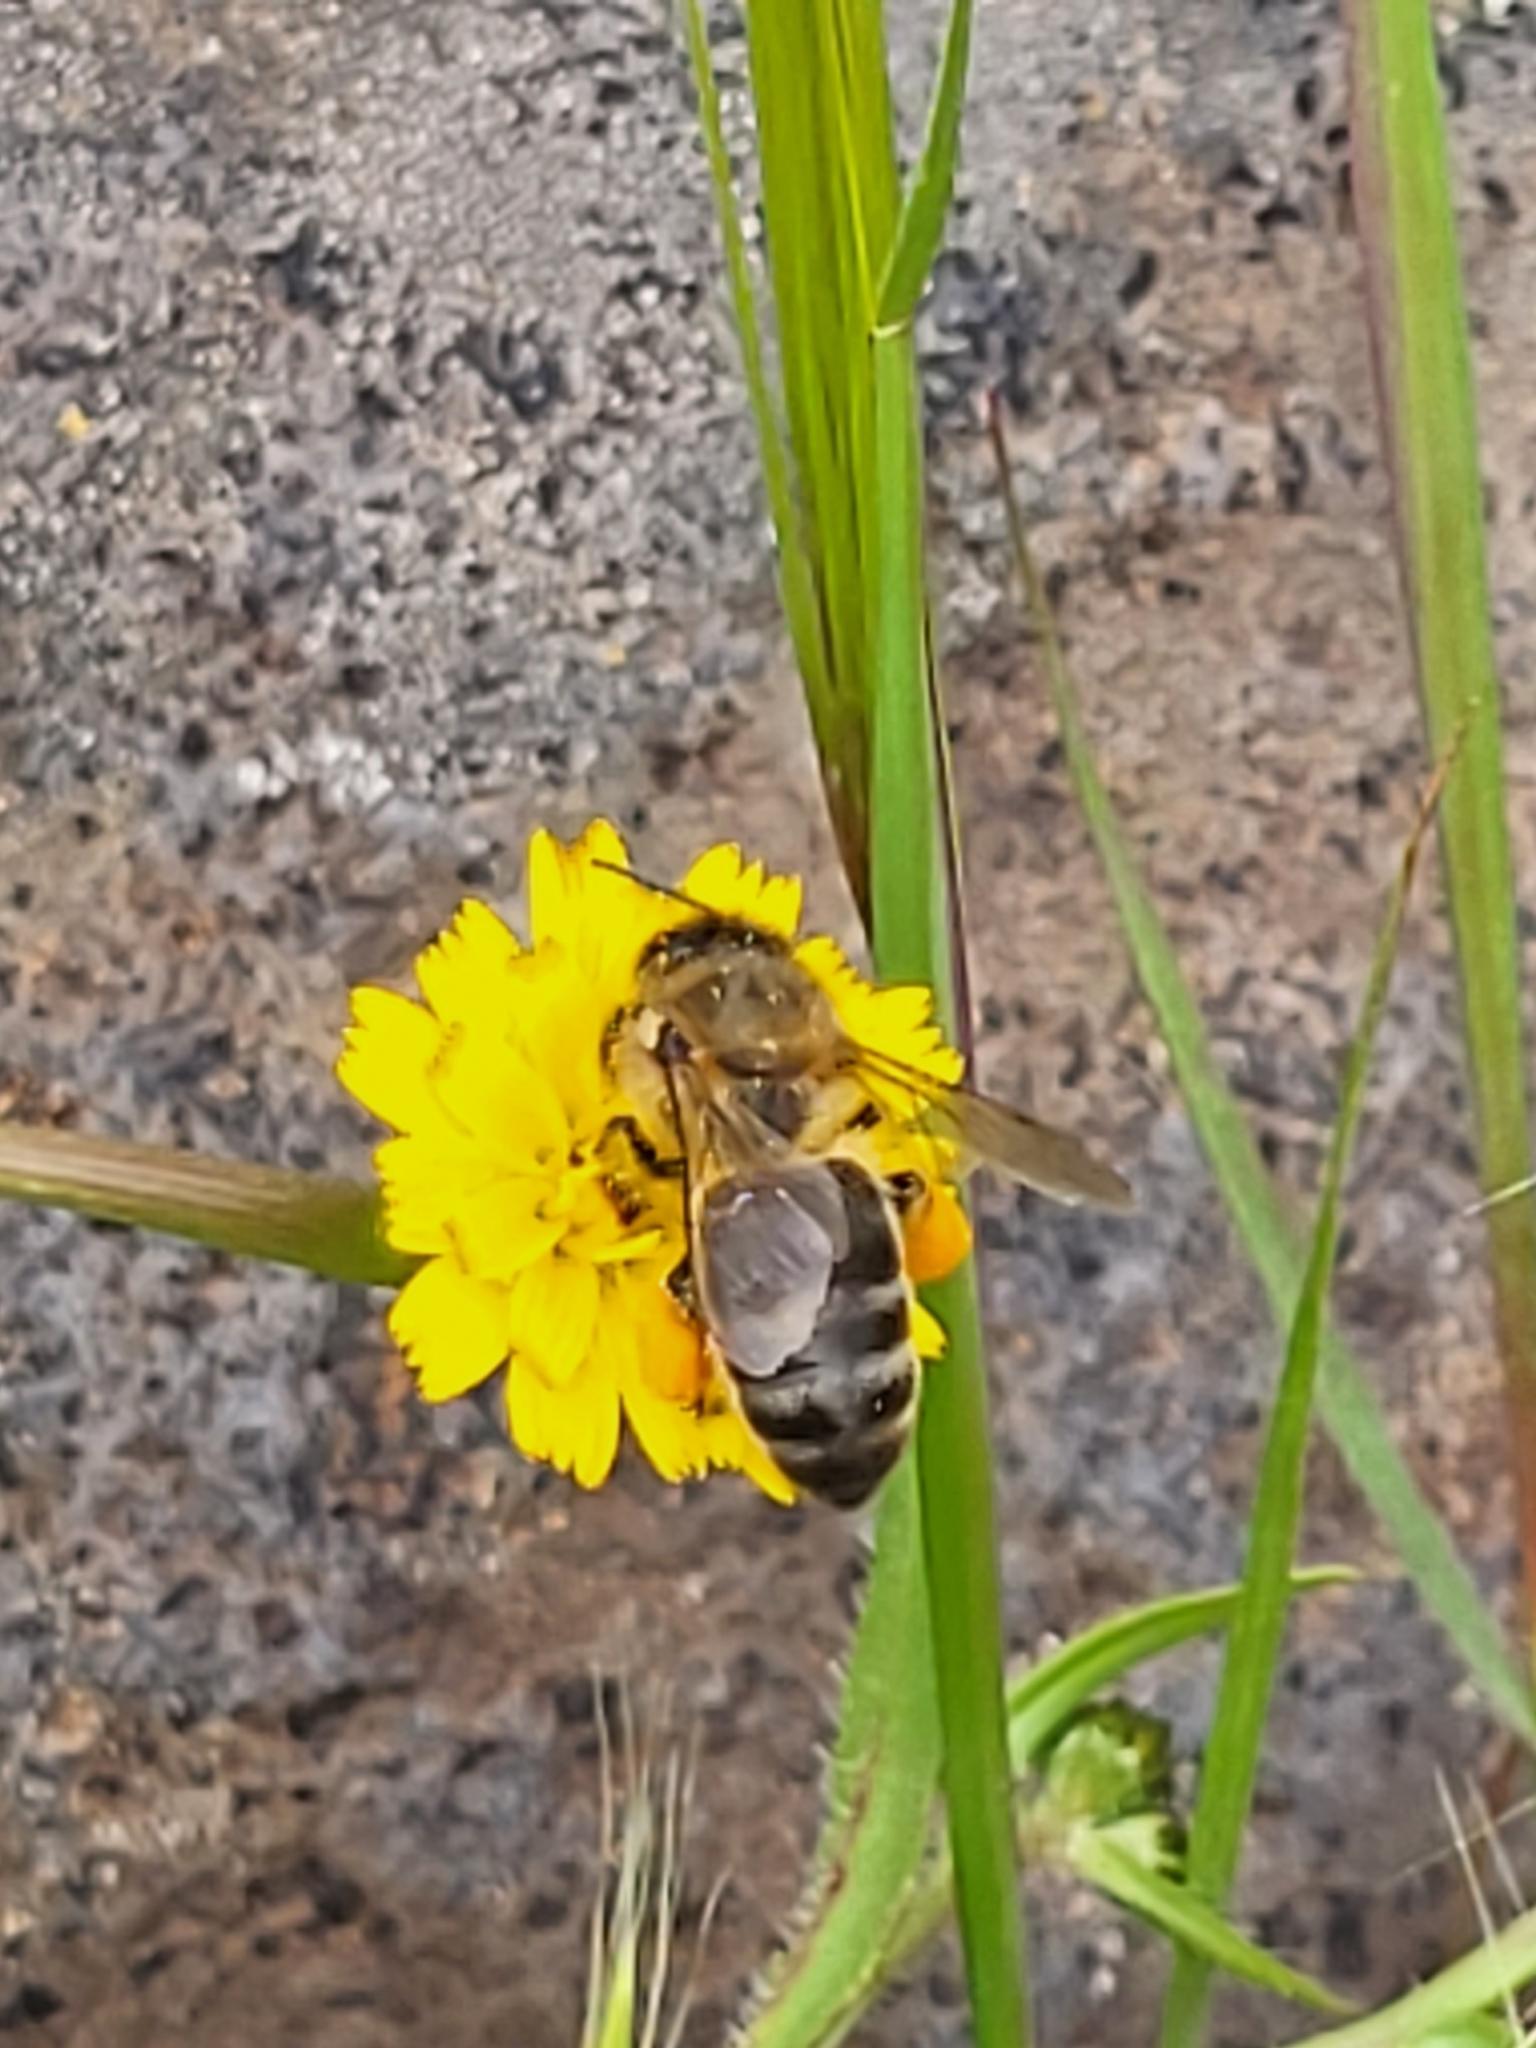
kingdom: Animalia
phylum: Arthropoda
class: Insecta
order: Hymenoptera
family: Apidae
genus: Apis
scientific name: Apis mellifera
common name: Honey bee
